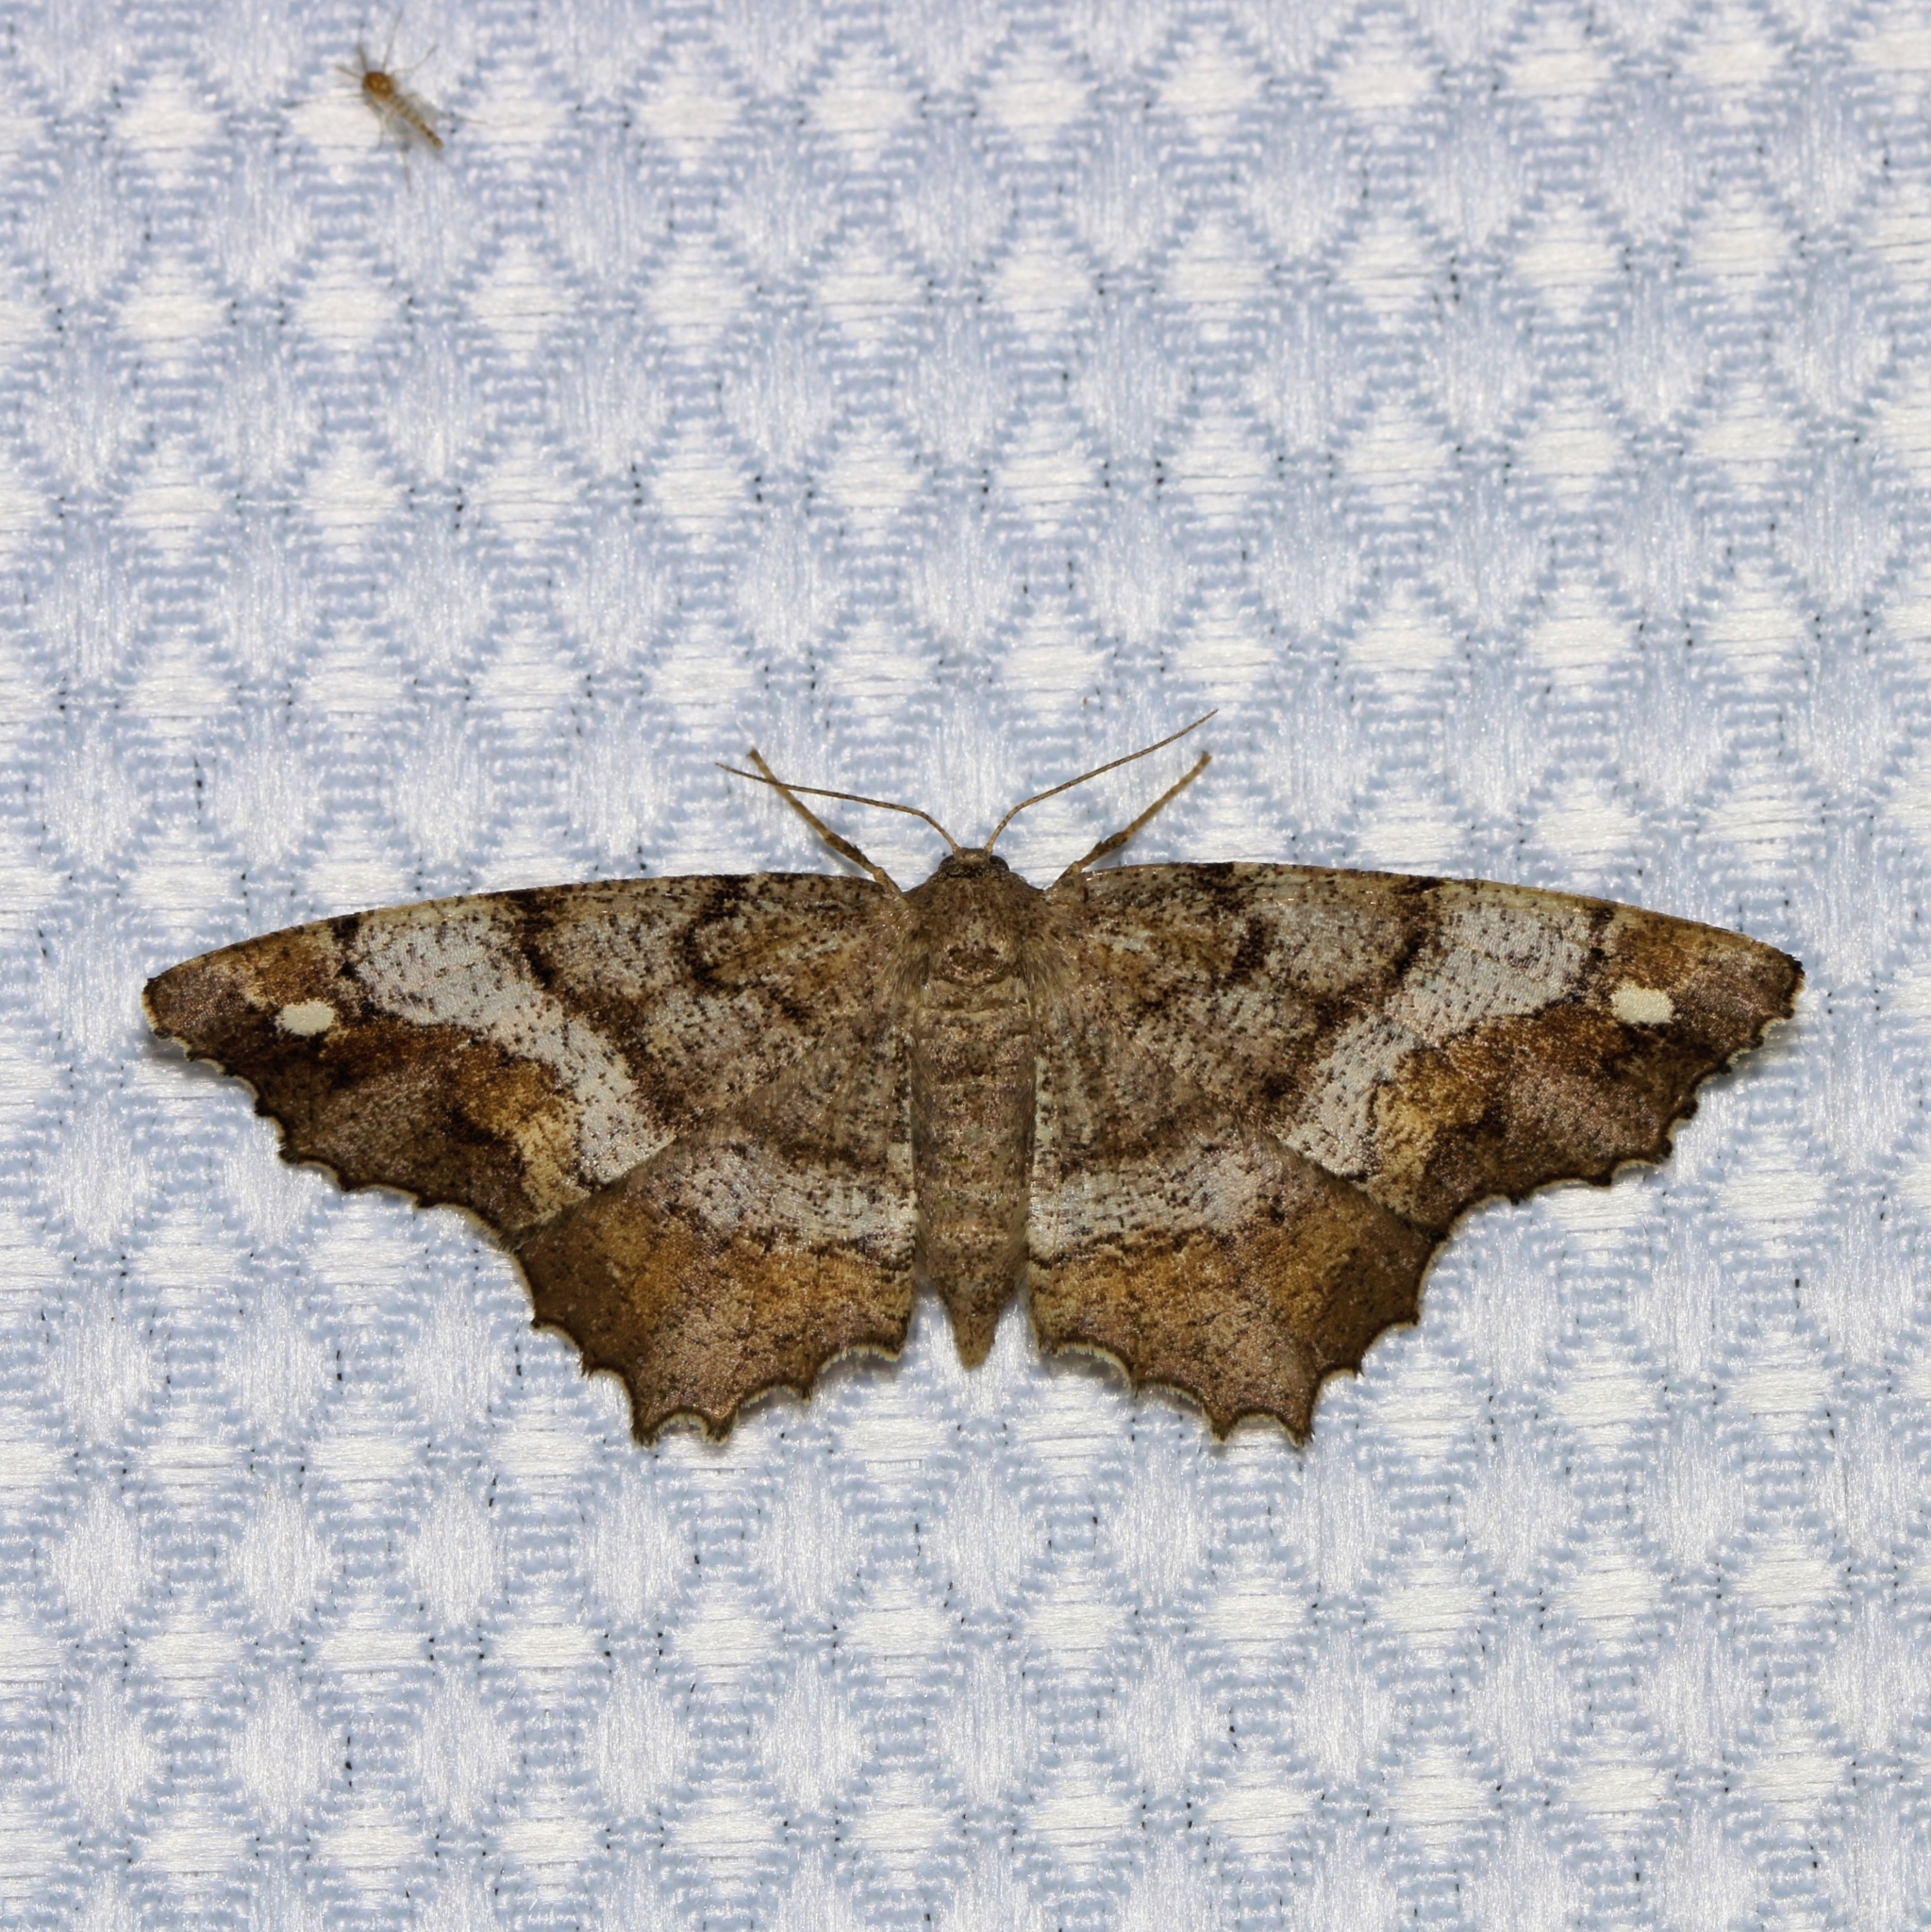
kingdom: Animalia
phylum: Arthropoda
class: Insecta
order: Lepidoptera
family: Geometridae
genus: Hypagyrtis
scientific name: Hypagyrtis unipunctata
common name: One-spotted variant
